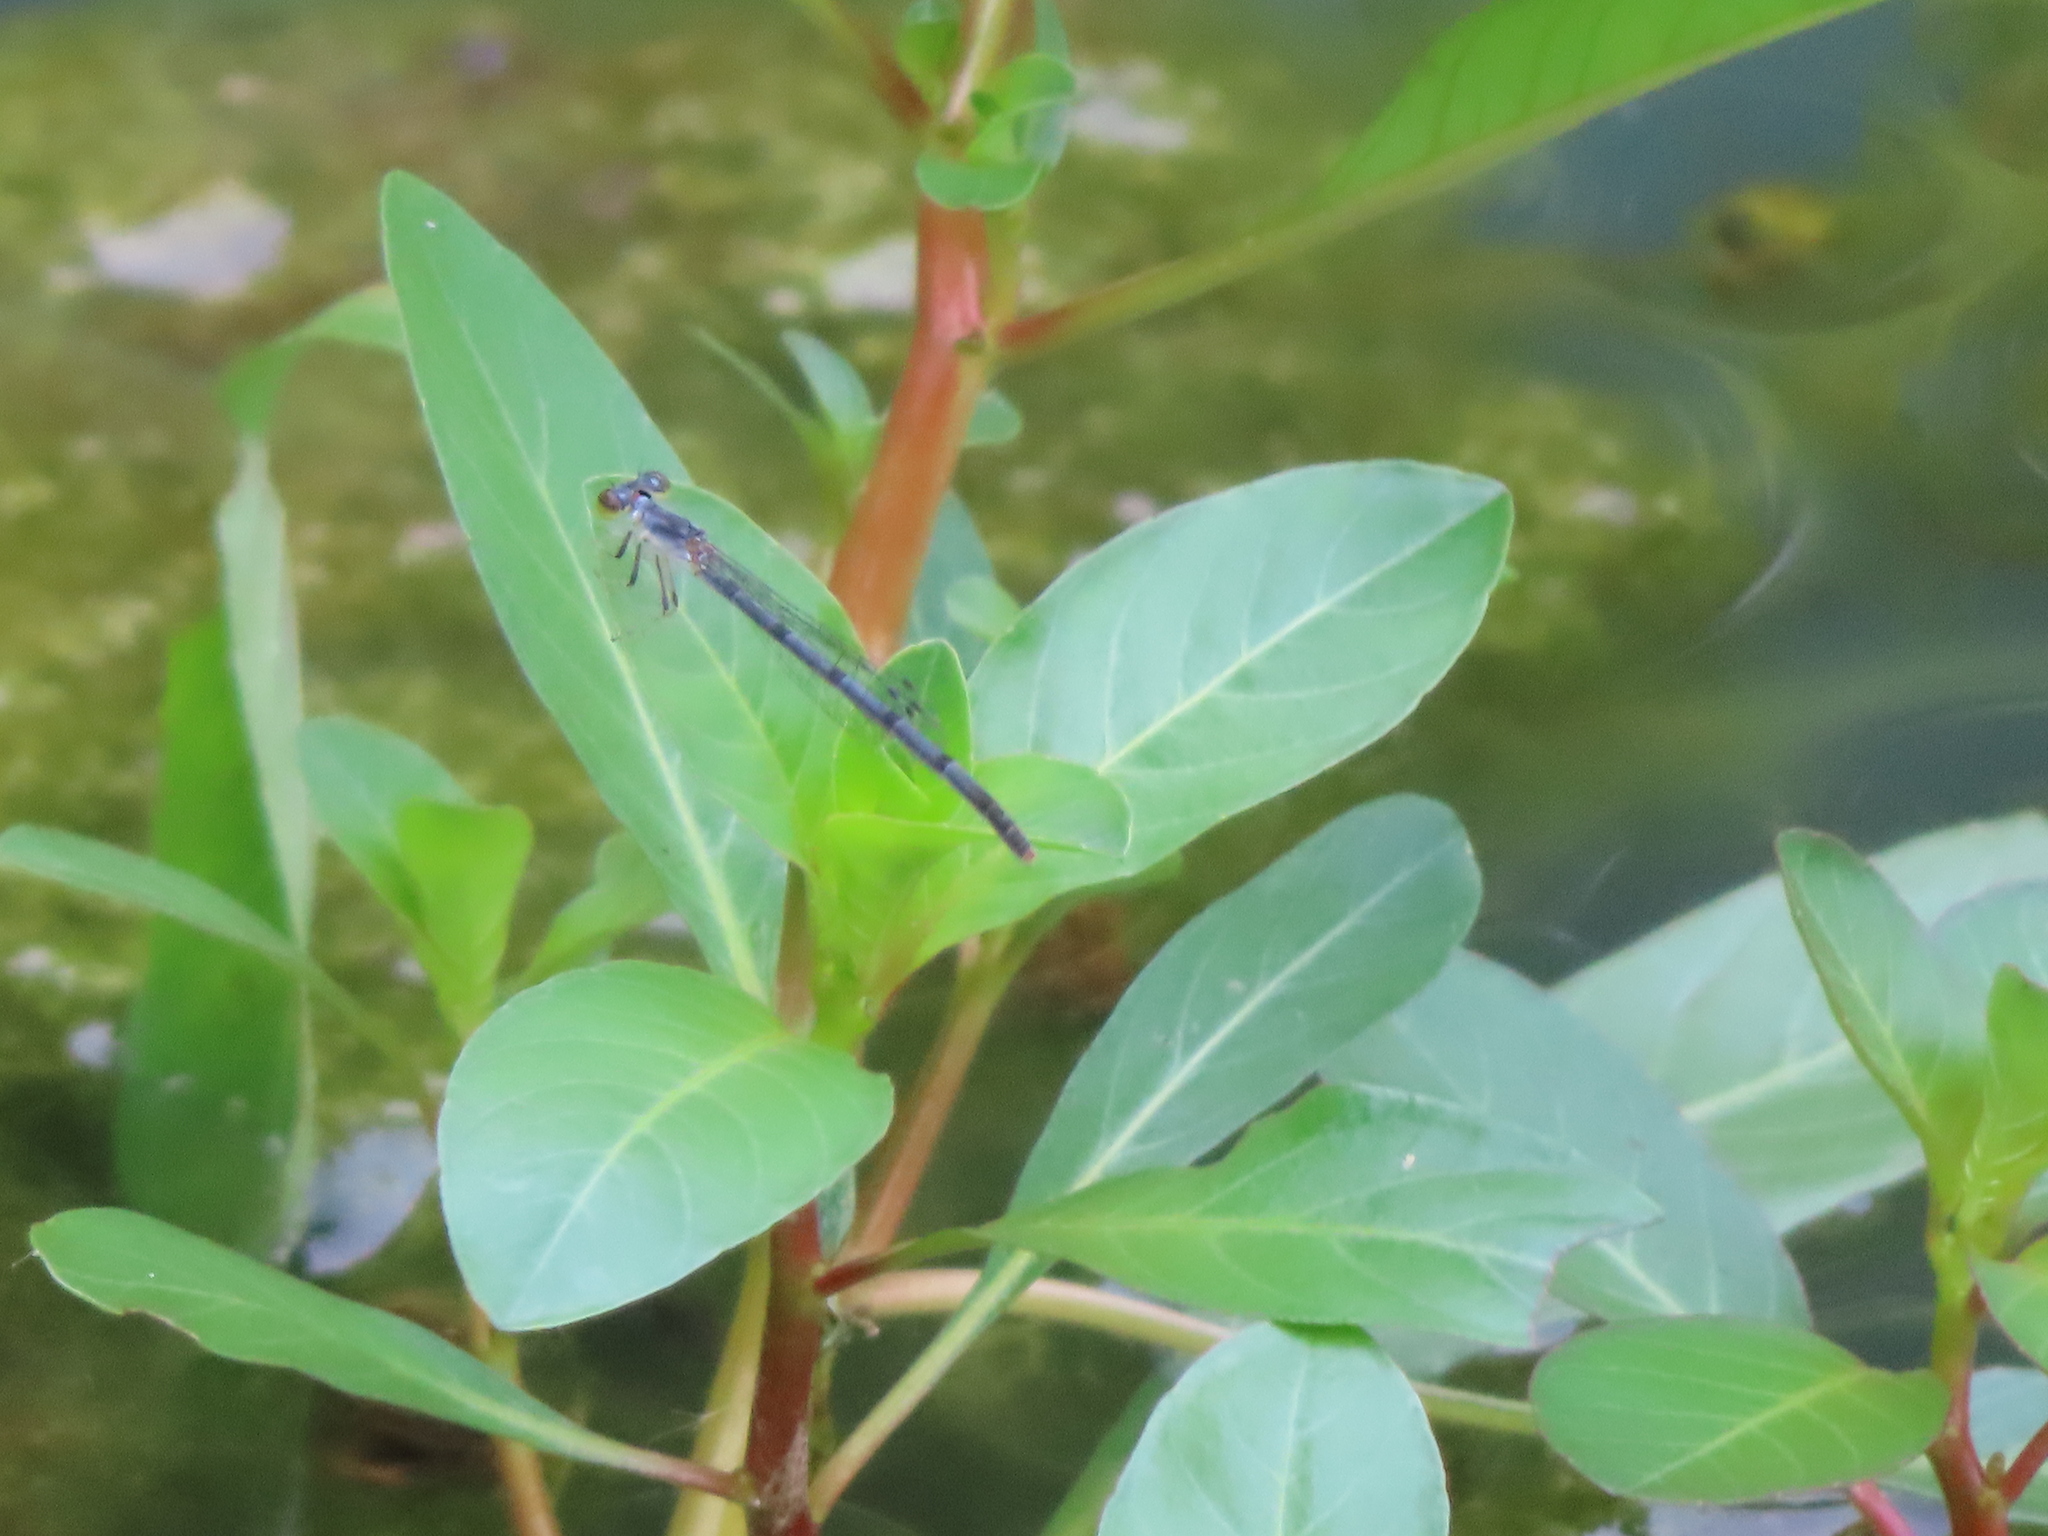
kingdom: Animalia
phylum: Arthropoda
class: Insecta
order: Odonata
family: Coenagrionidae
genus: Ischnura
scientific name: Ischnura posita
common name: Fragile forktail
